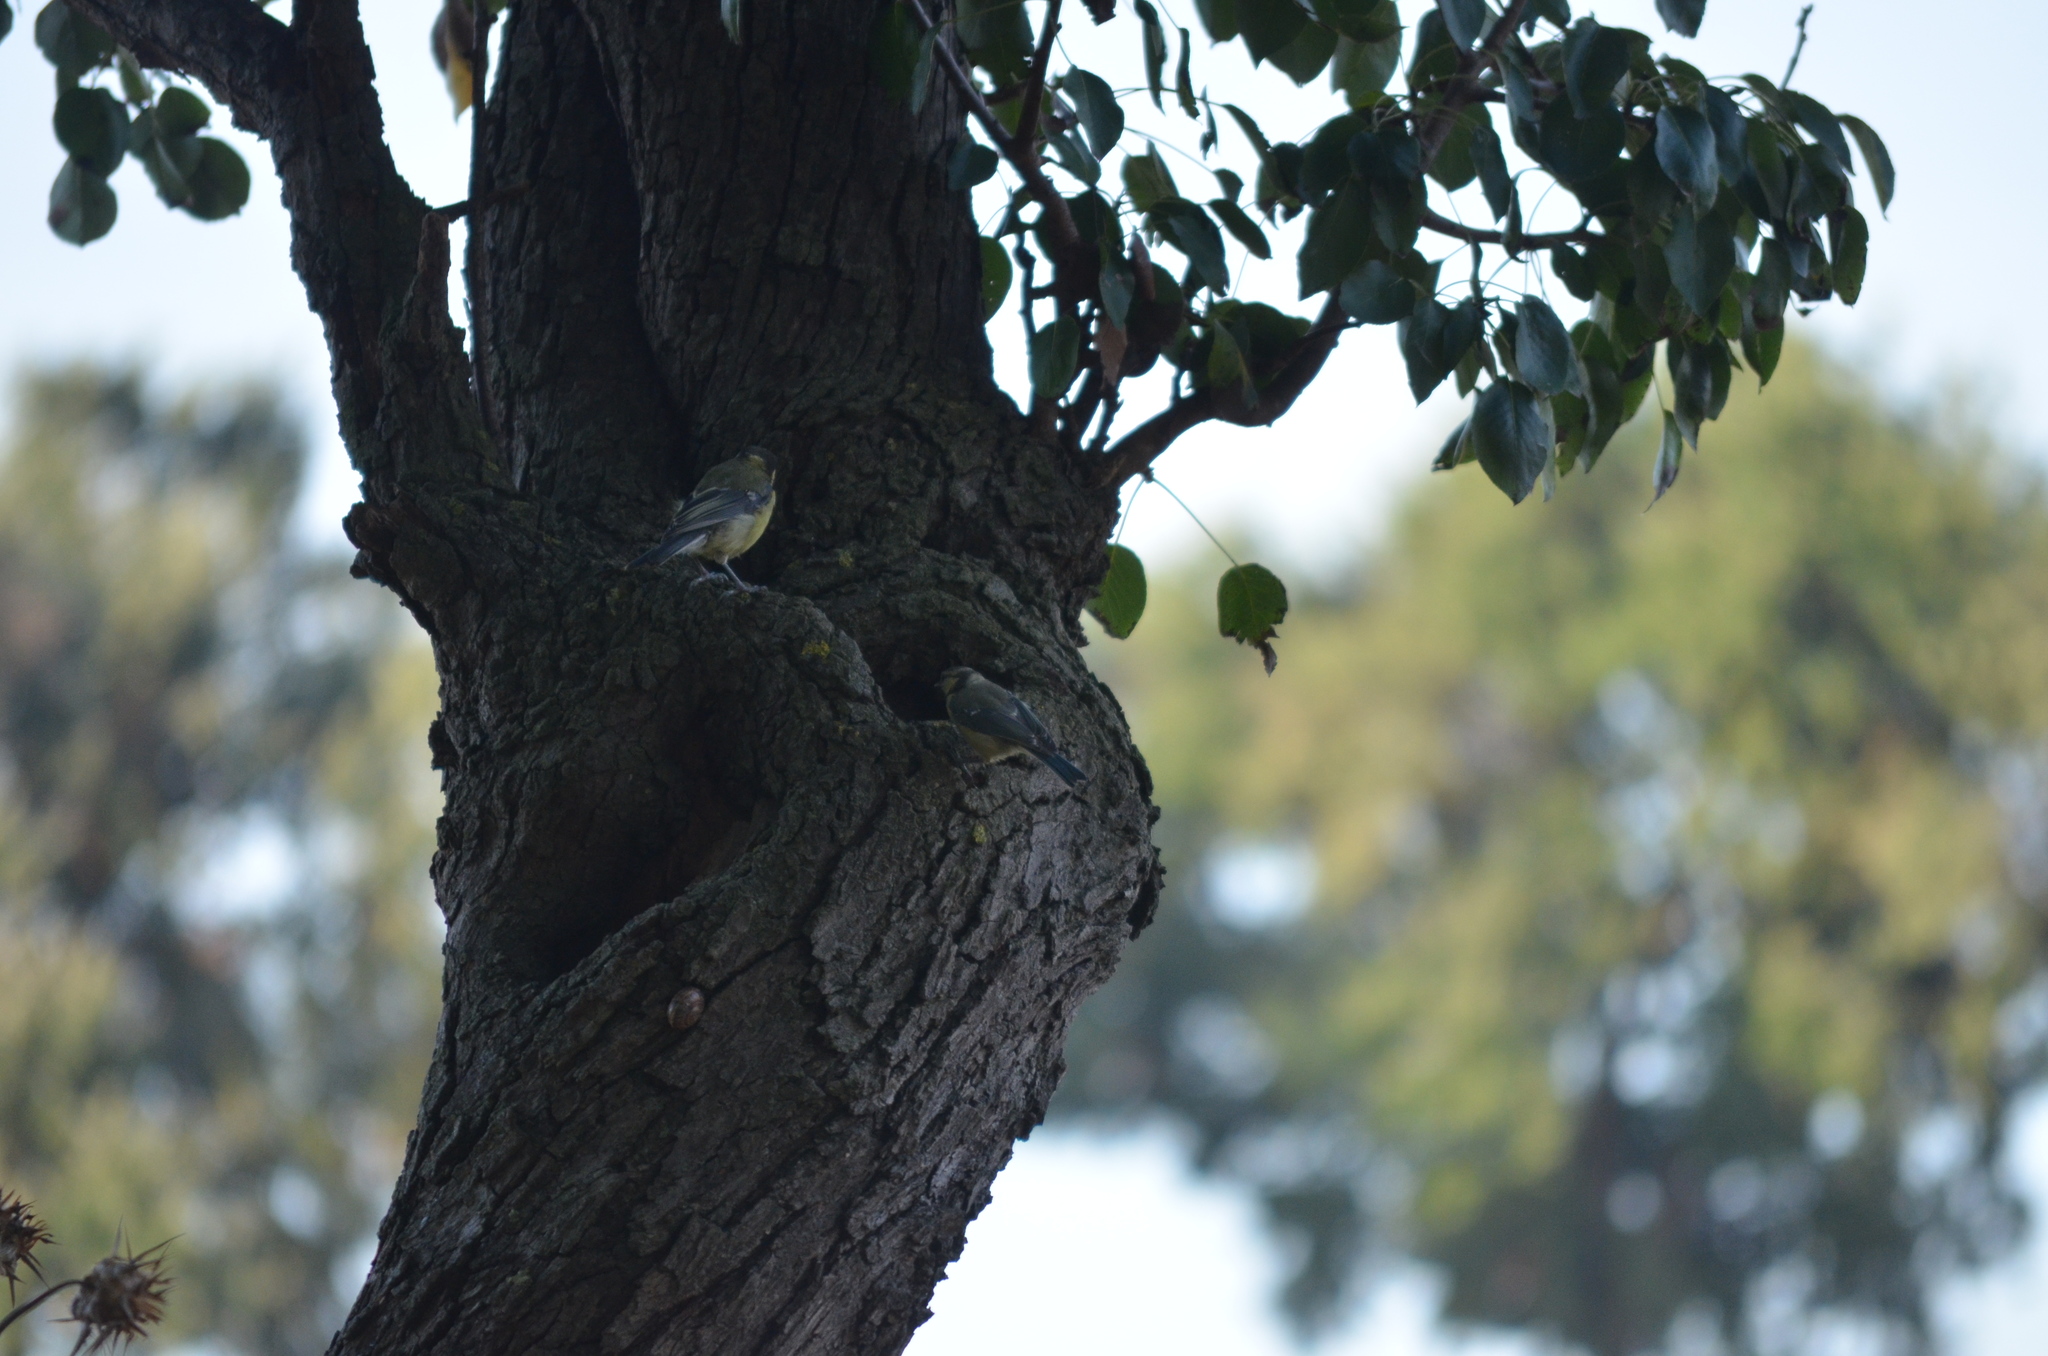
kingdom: Animalia
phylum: Chordata
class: Aves
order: Passeriformes
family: Paridae
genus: Parus
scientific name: Parus major
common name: Great tit
